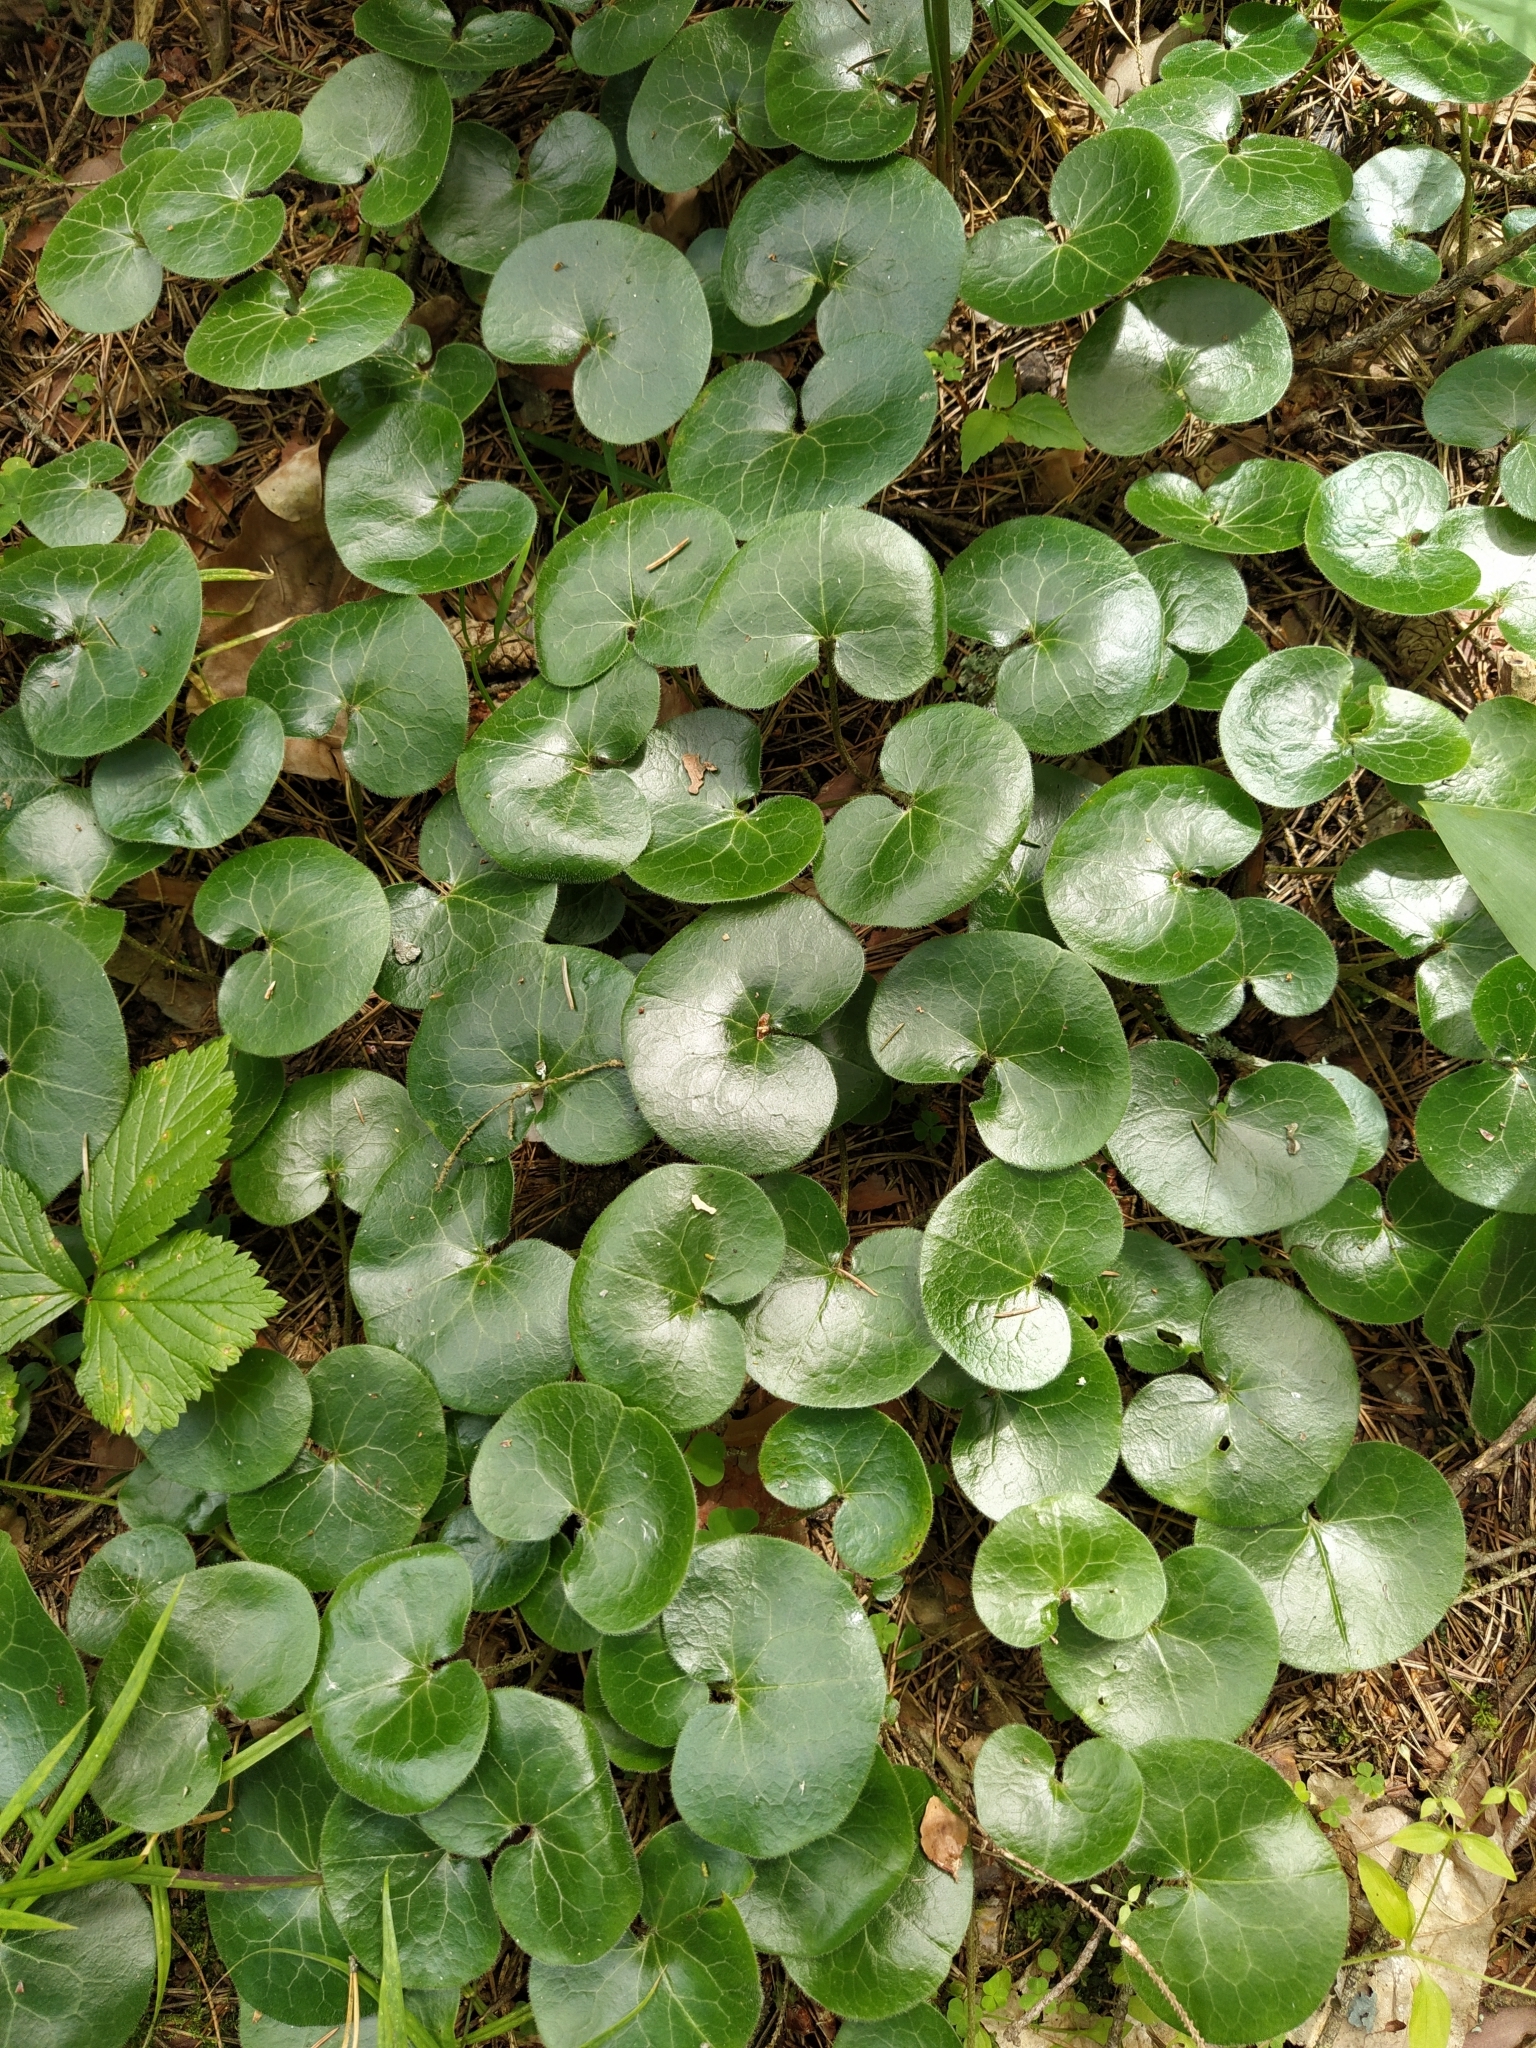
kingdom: Plantae
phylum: Tracheophyta
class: Magnoliopsida
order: Piperales
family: Aristolochiaceae
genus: Asarum
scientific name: Asarum europaeum
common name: Asarabacca
